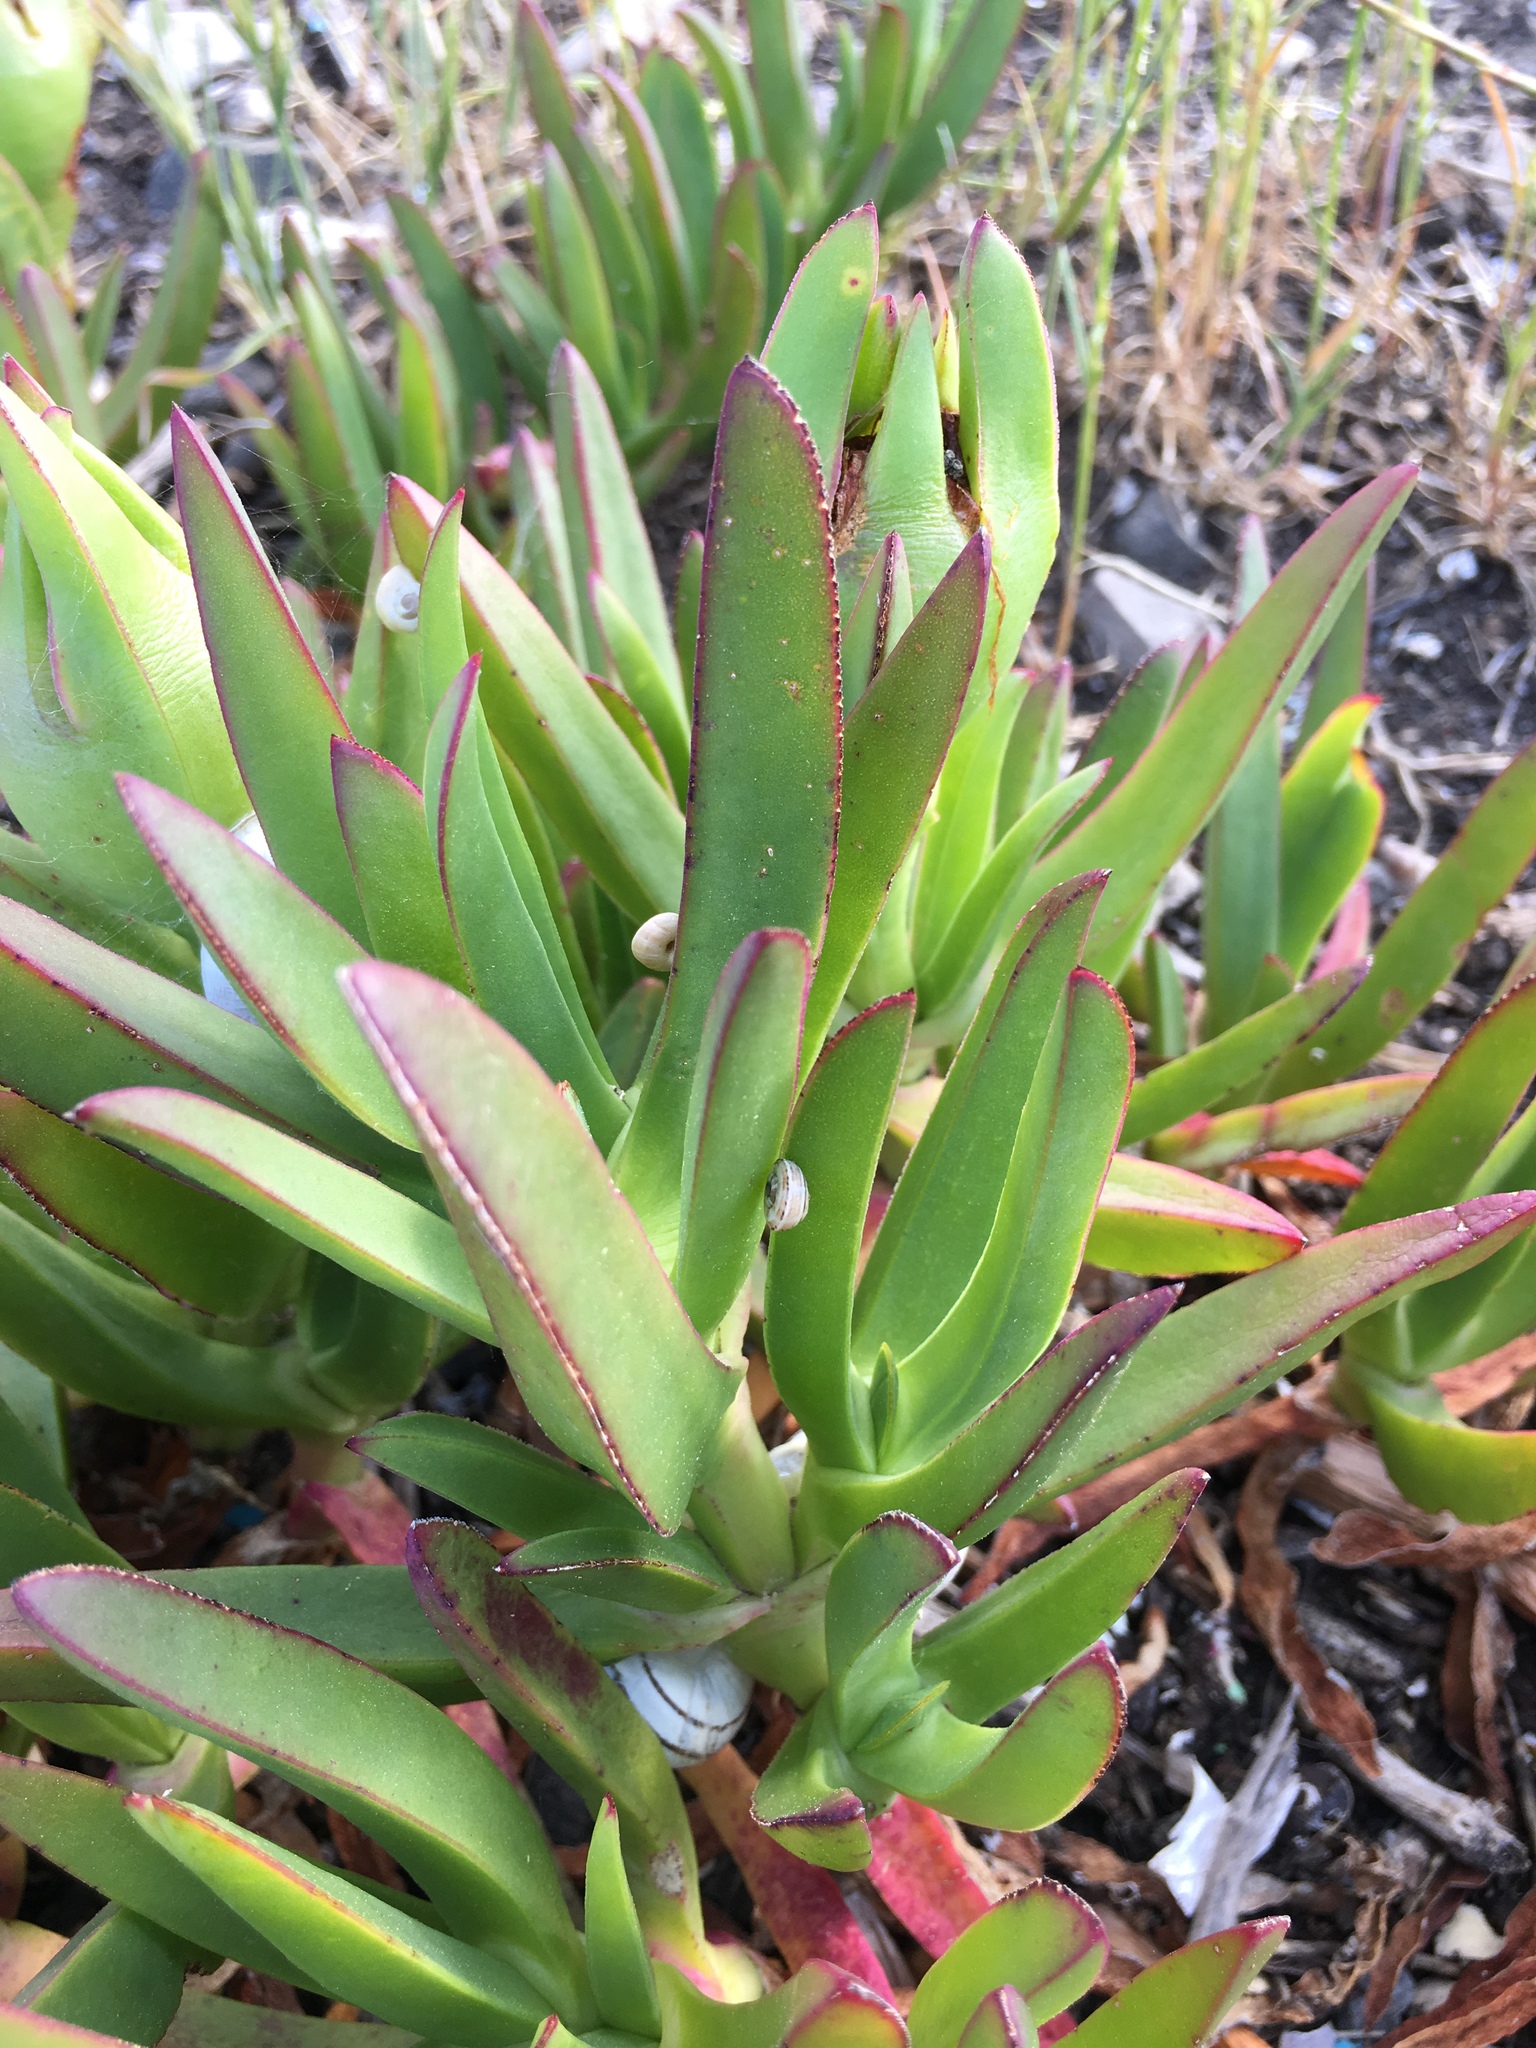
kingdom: Plantae
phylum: Tracheophyta
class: Magnoliopsida
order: Caryophyllales
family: Aizoaceae
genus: Carpobrotus
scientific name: Carpobrotus edulis
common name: Hottentot-fig
